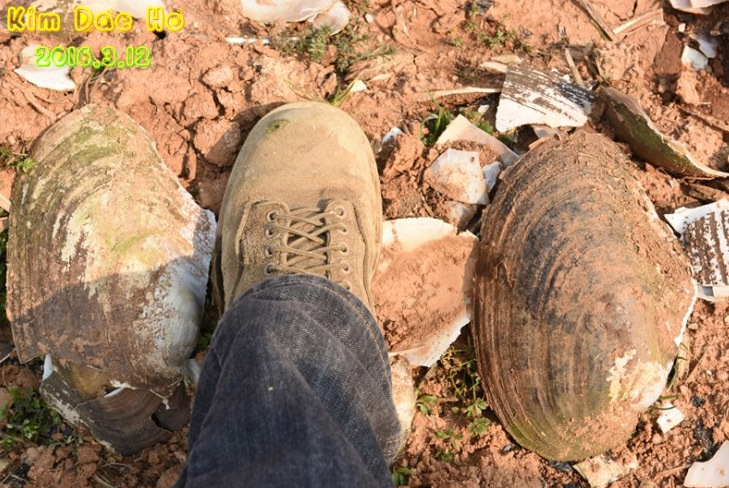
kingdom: Animalia
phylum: Mollusca
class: Bivalvia
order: Unionida
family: Unionidae
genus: Cristaria
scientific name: Cristaria plicata
